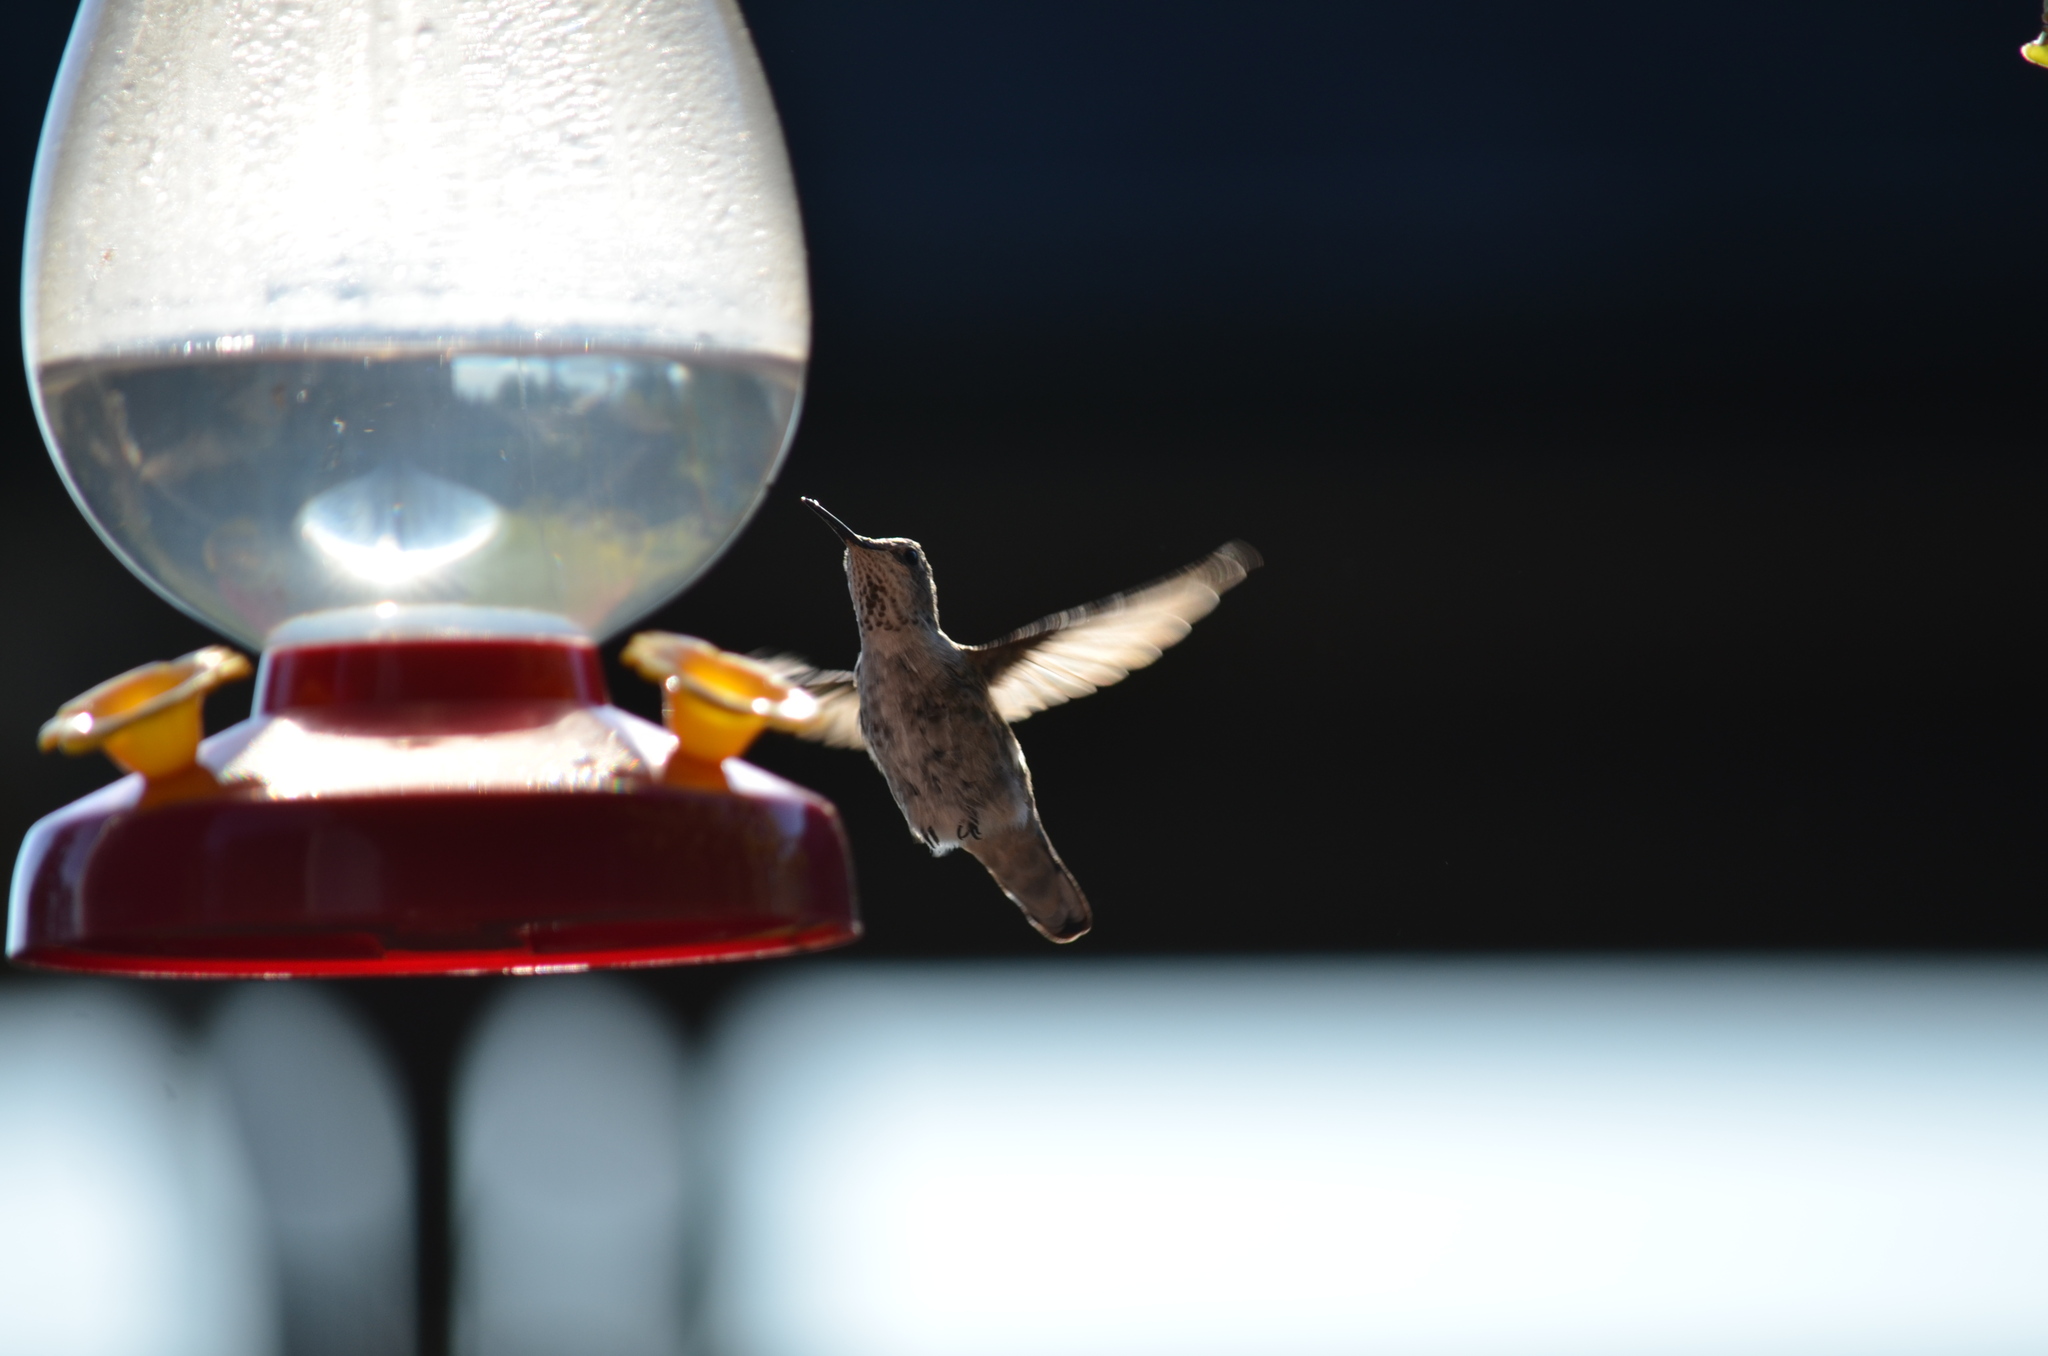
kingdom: Animalia
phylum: Chordata
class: Aves
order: Apodiformes
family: Trochilidae
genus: Calypte
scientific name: Calypte anna
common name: Anna's hummingbird
